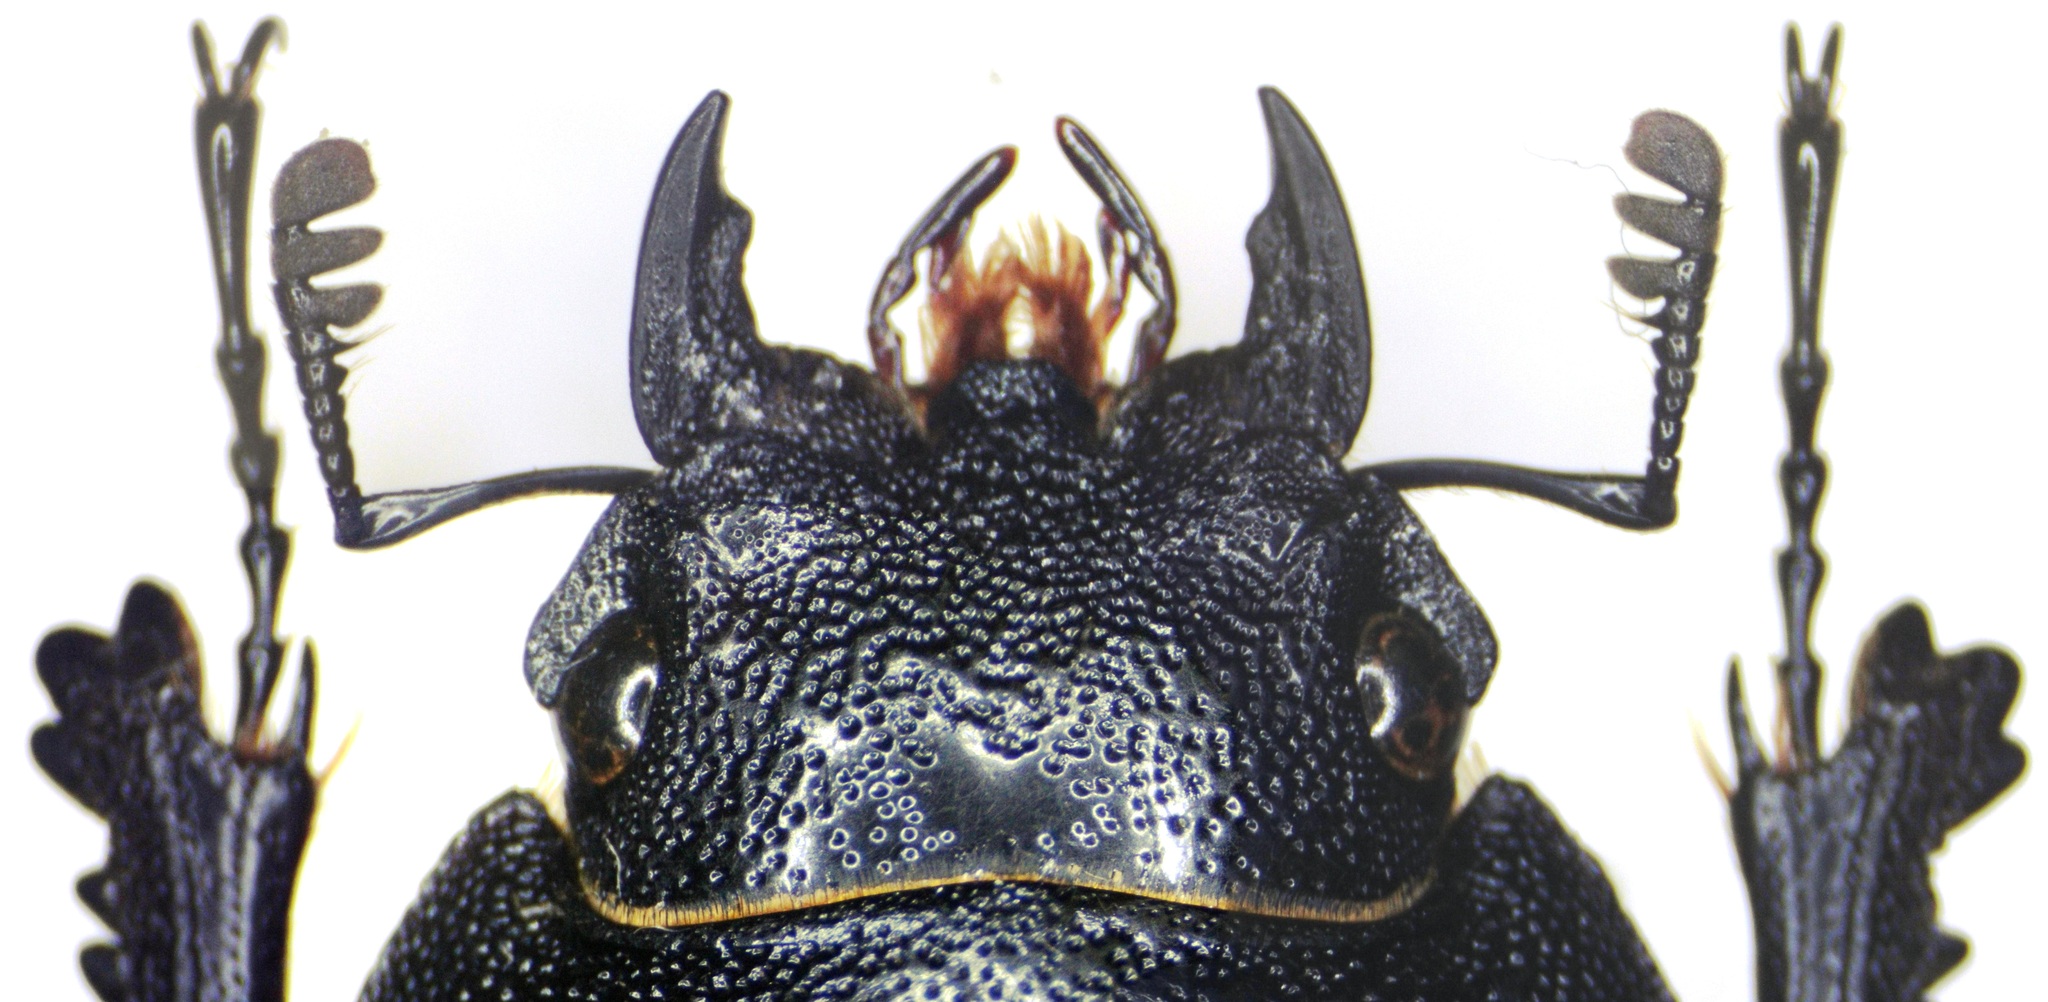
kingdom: Animalia
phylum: Arthropoda
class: Insecta
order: Coleoptera
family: Lucanidae
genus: Prosopocoilus
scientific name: Prosopocoilus dissimilis
